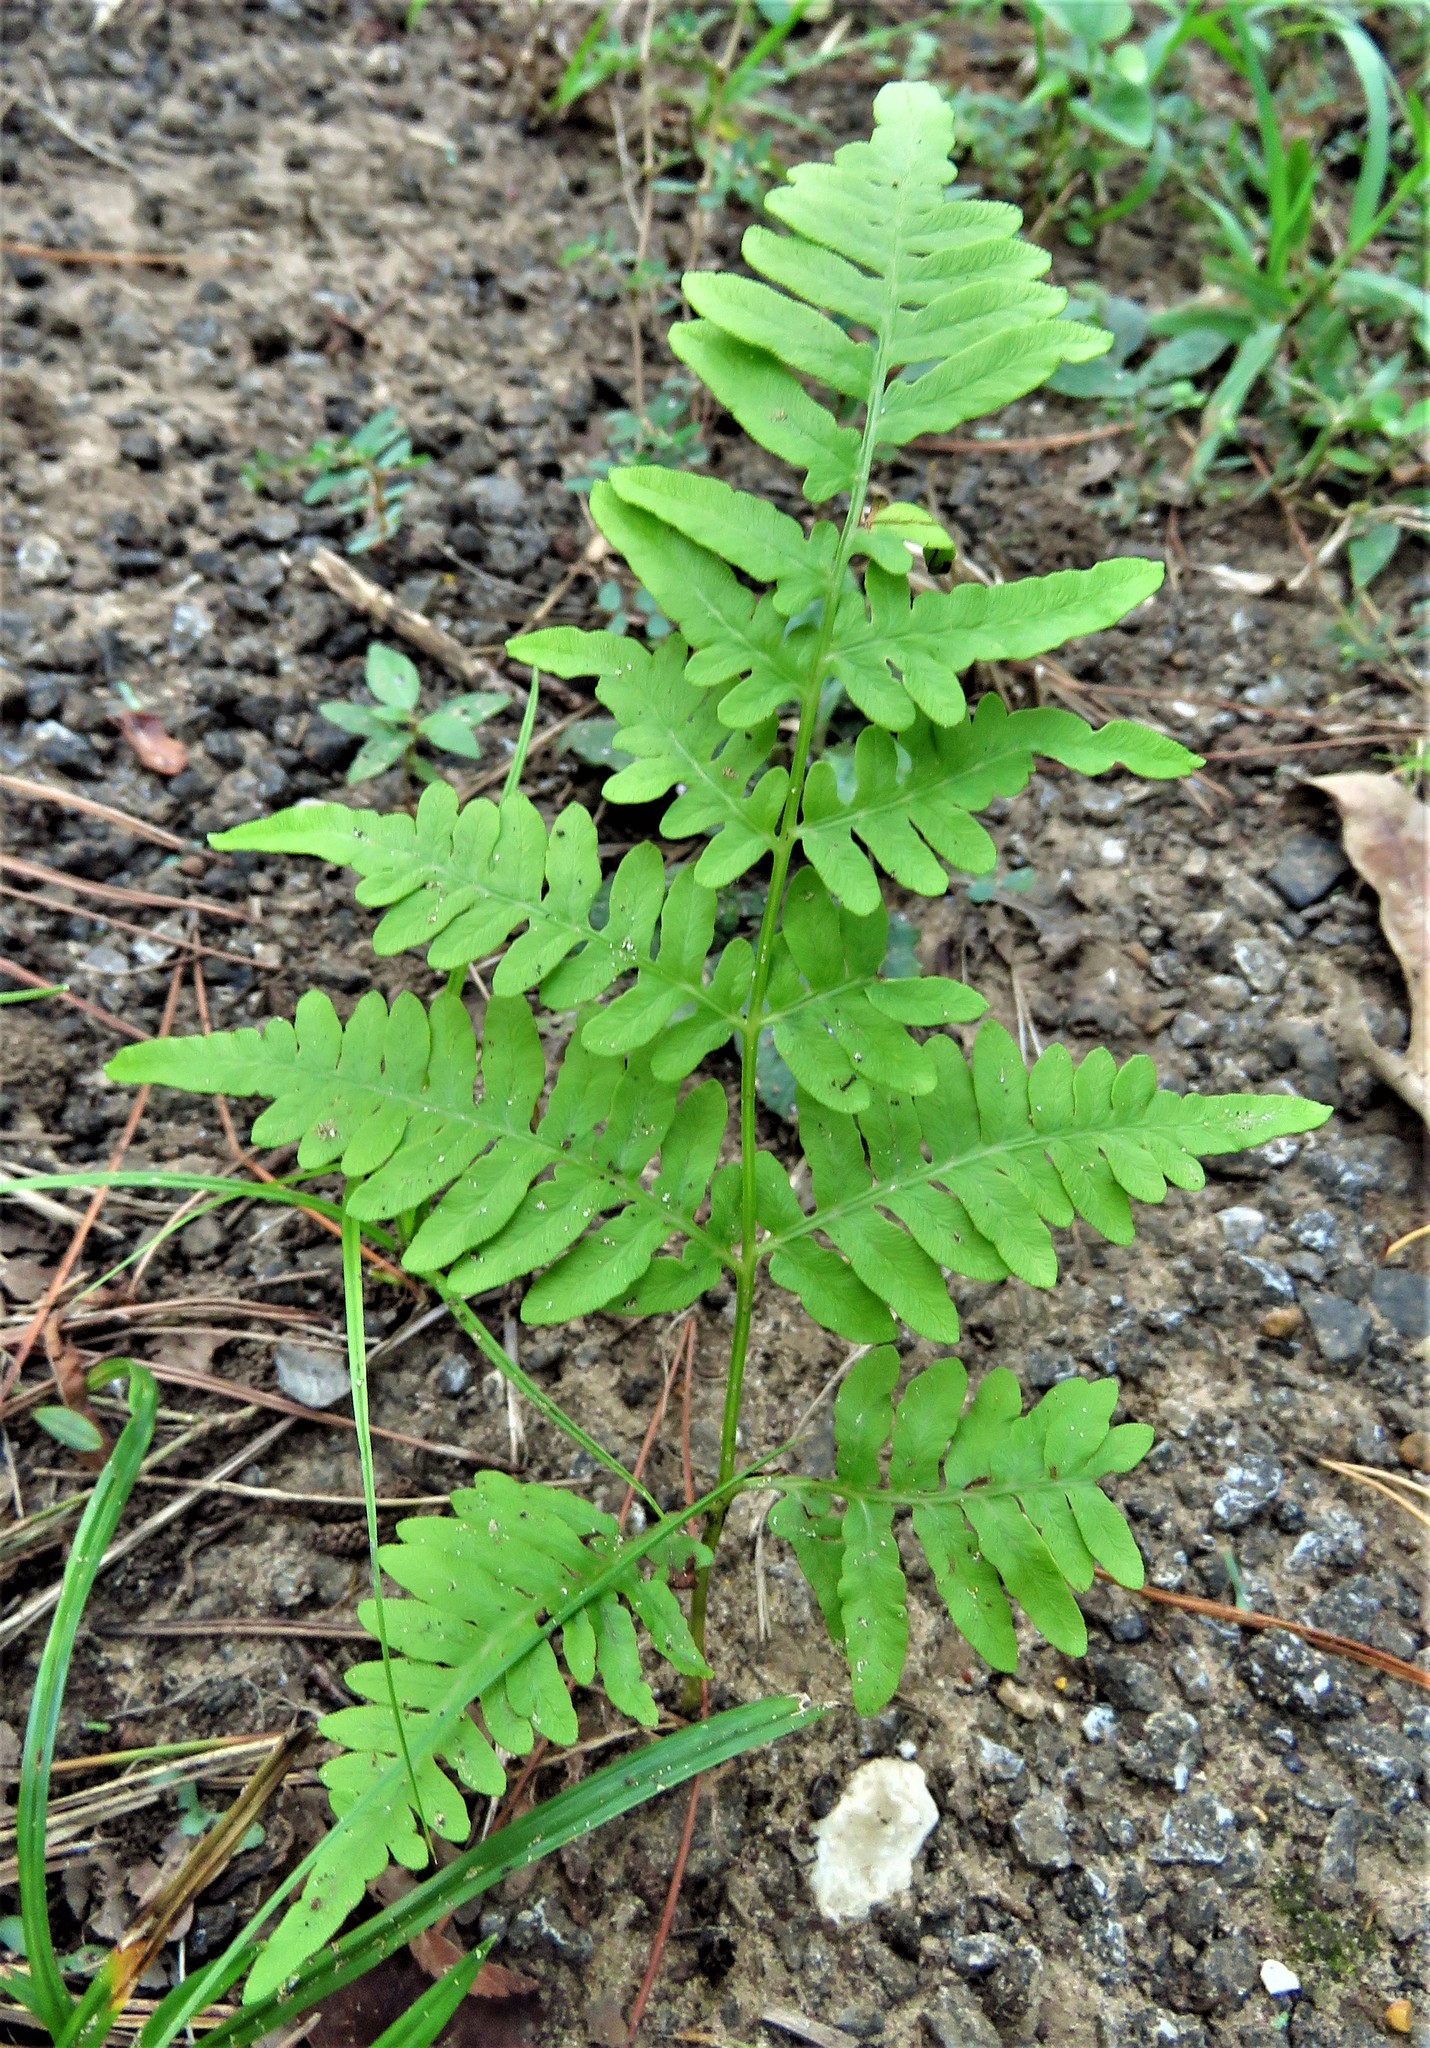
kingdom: Plantae
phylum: Tracheophyta
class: Polypodiopsida
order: Polypodiales
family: Dennstaedtiaceae
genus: Pteridium
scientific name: Pteridium
